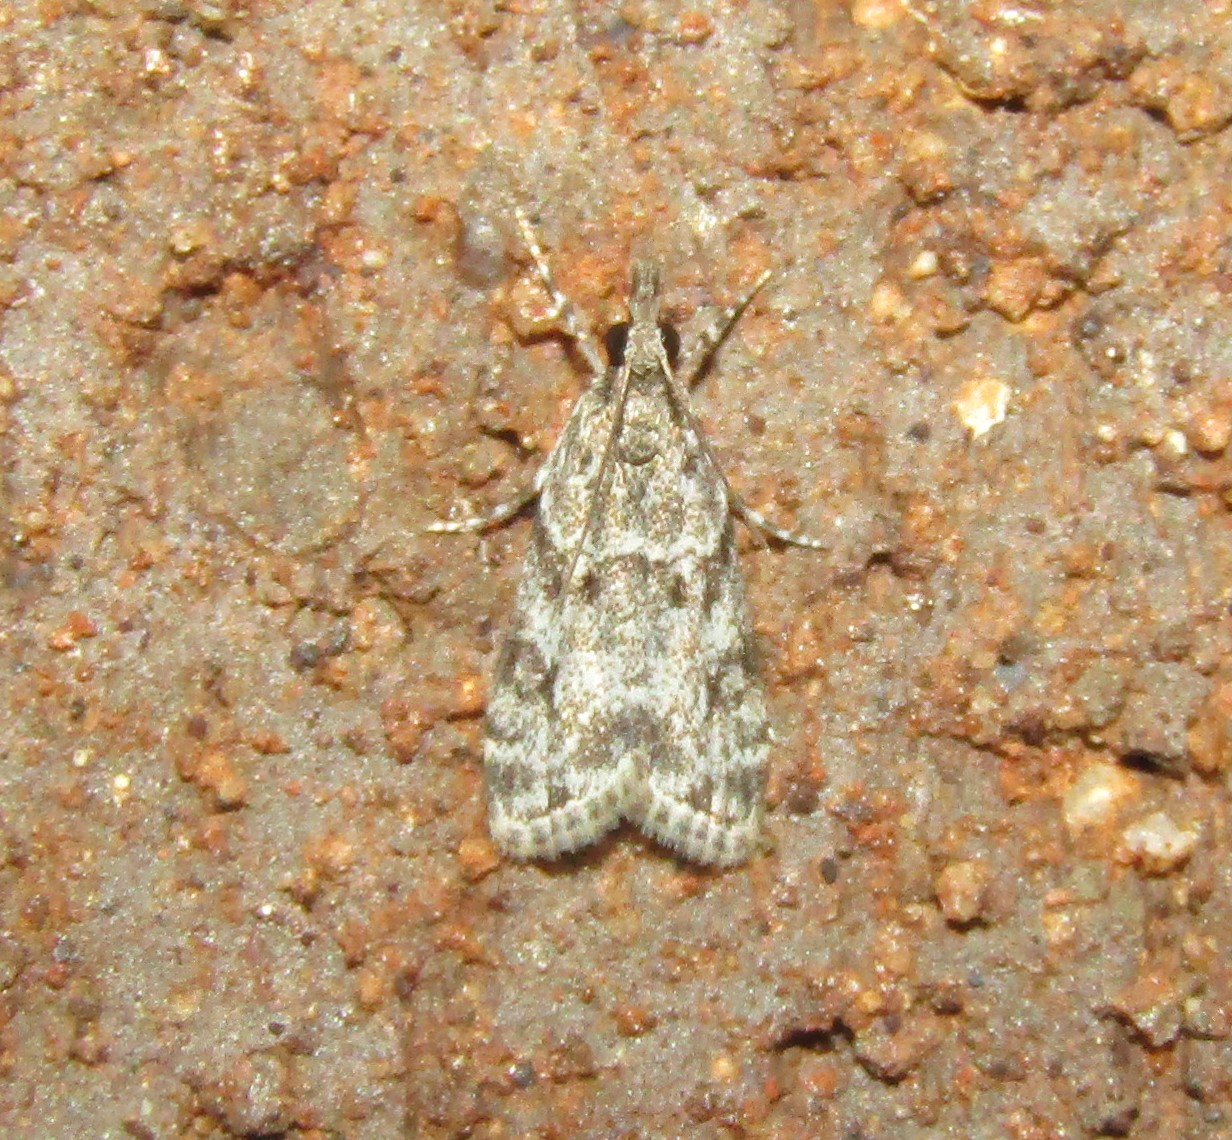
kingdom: Animalia
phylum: Arthropoda
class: Insecta
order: Lepidoptera
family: Crambidae
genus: Eudonia
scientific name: Eudonia heterosalis
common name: Mcdunnough's eudonia
